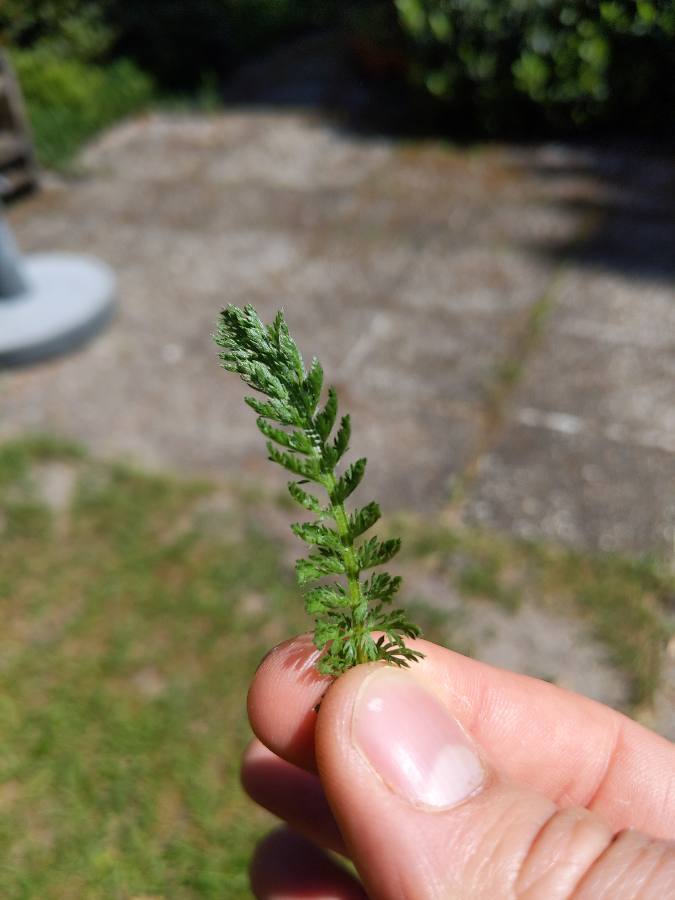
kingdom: Plantae
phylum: Tracheophyta
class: Magnoliopsida
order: Asterales
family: Asteraceae
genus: Achillea
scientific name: Achillea millefolium
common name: Yarrow
